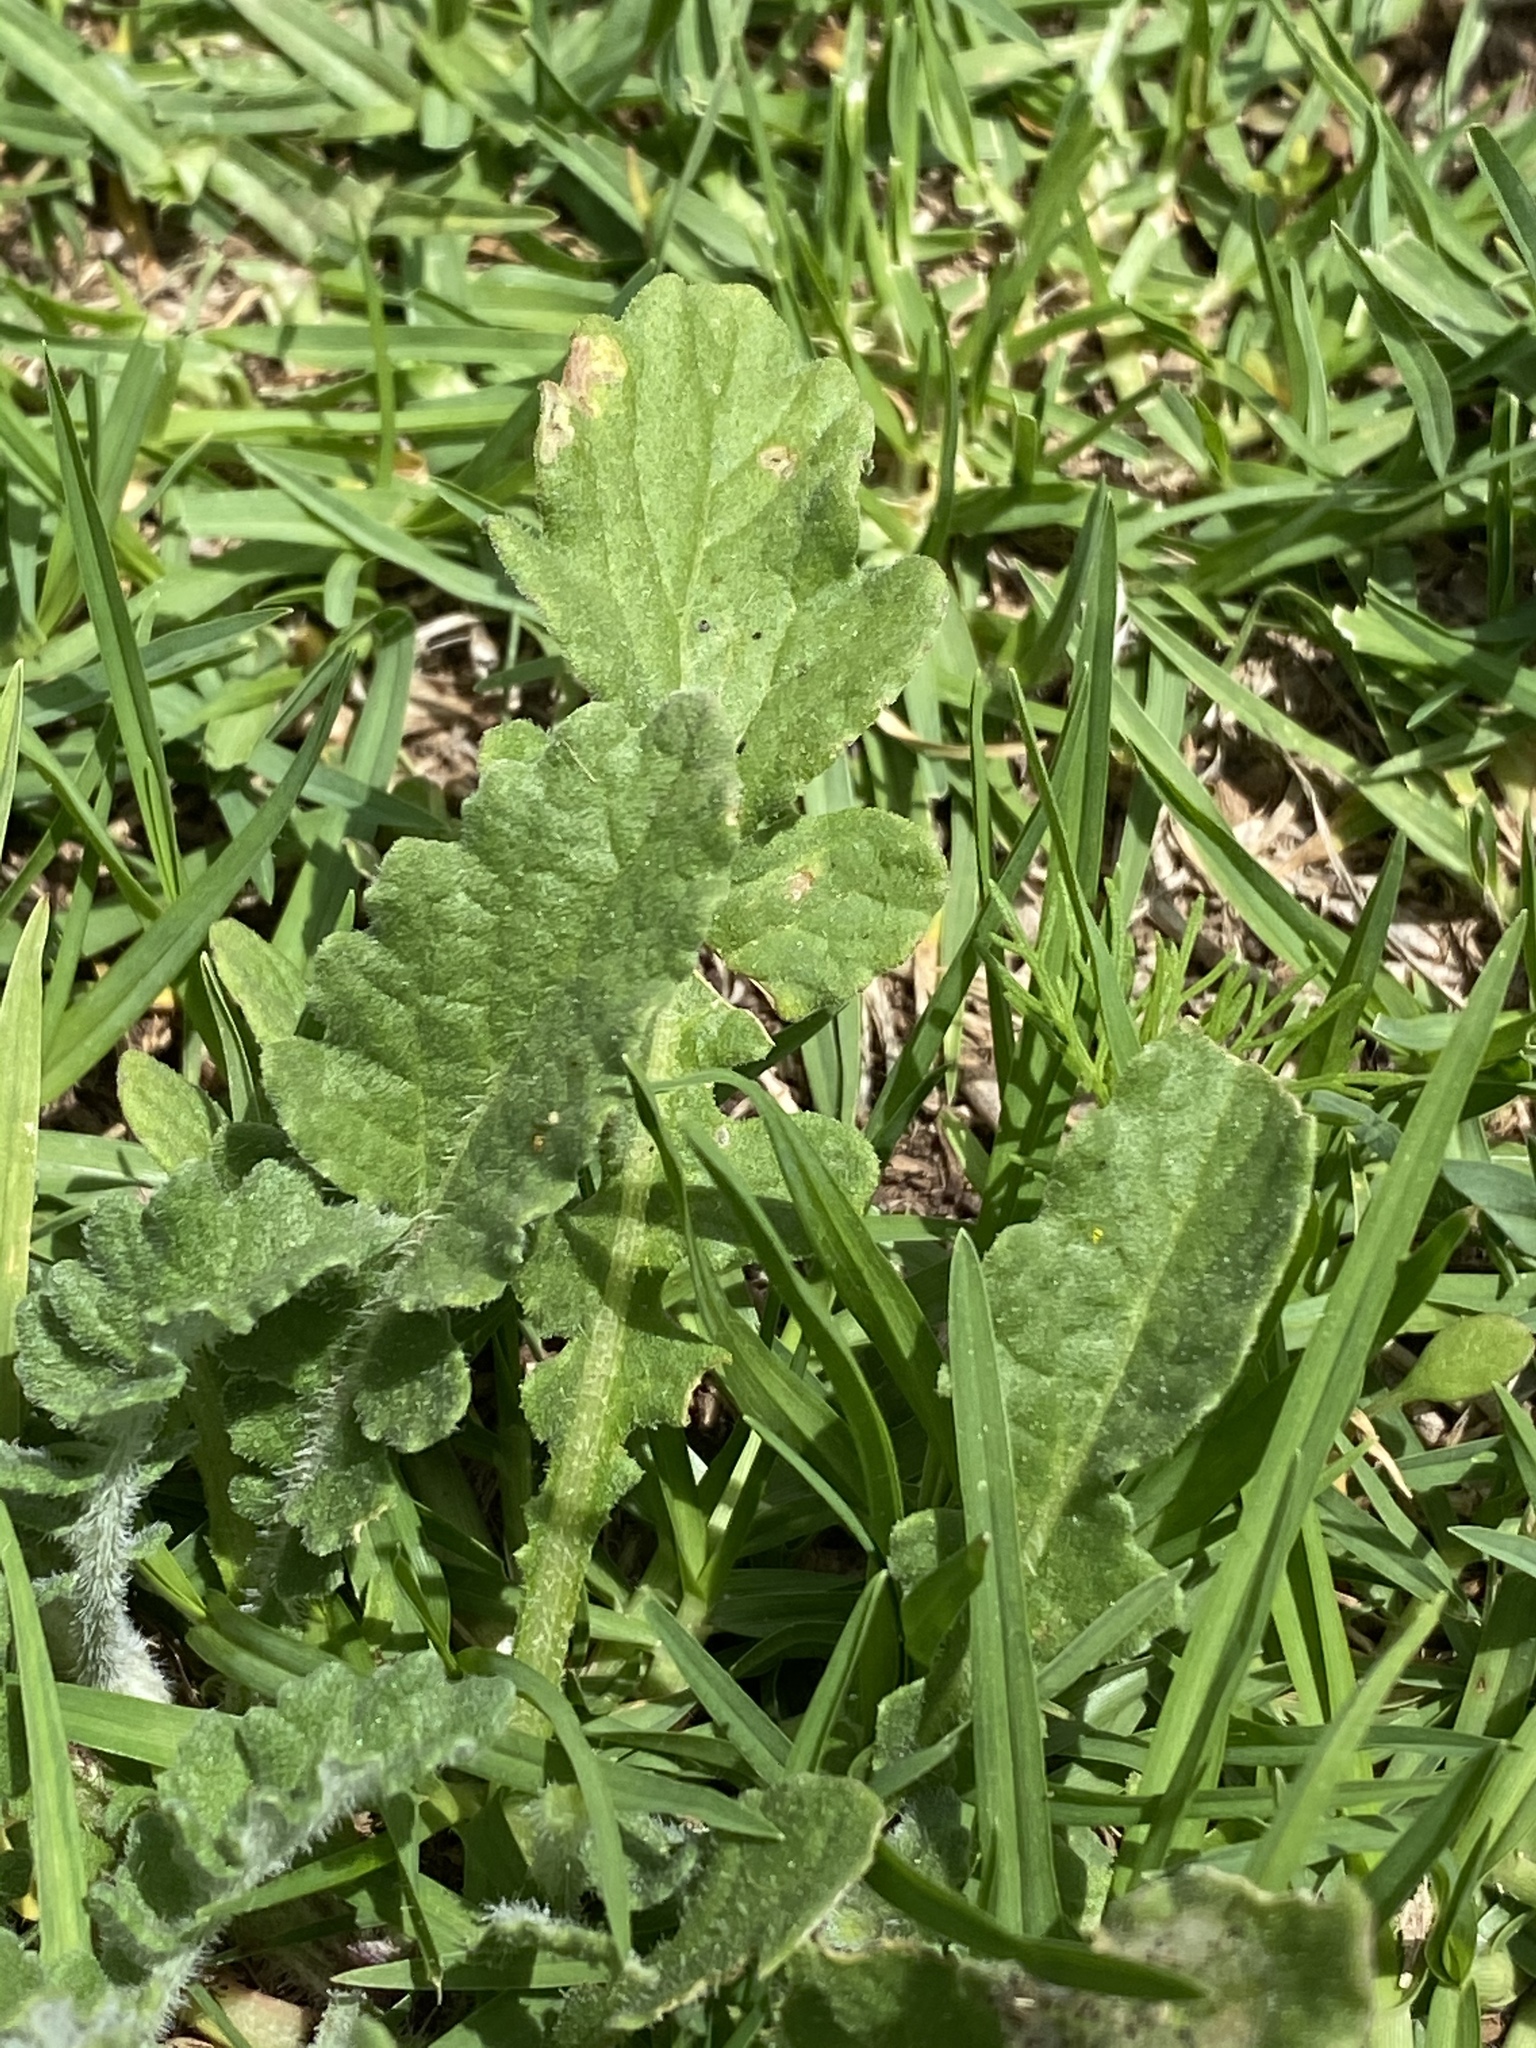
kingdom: Plantae
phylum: Tracheophyta
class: Magnoliopsida
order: Asterales
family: Asteraceae
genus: Arctotis
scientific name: Arctotis arctotoides
